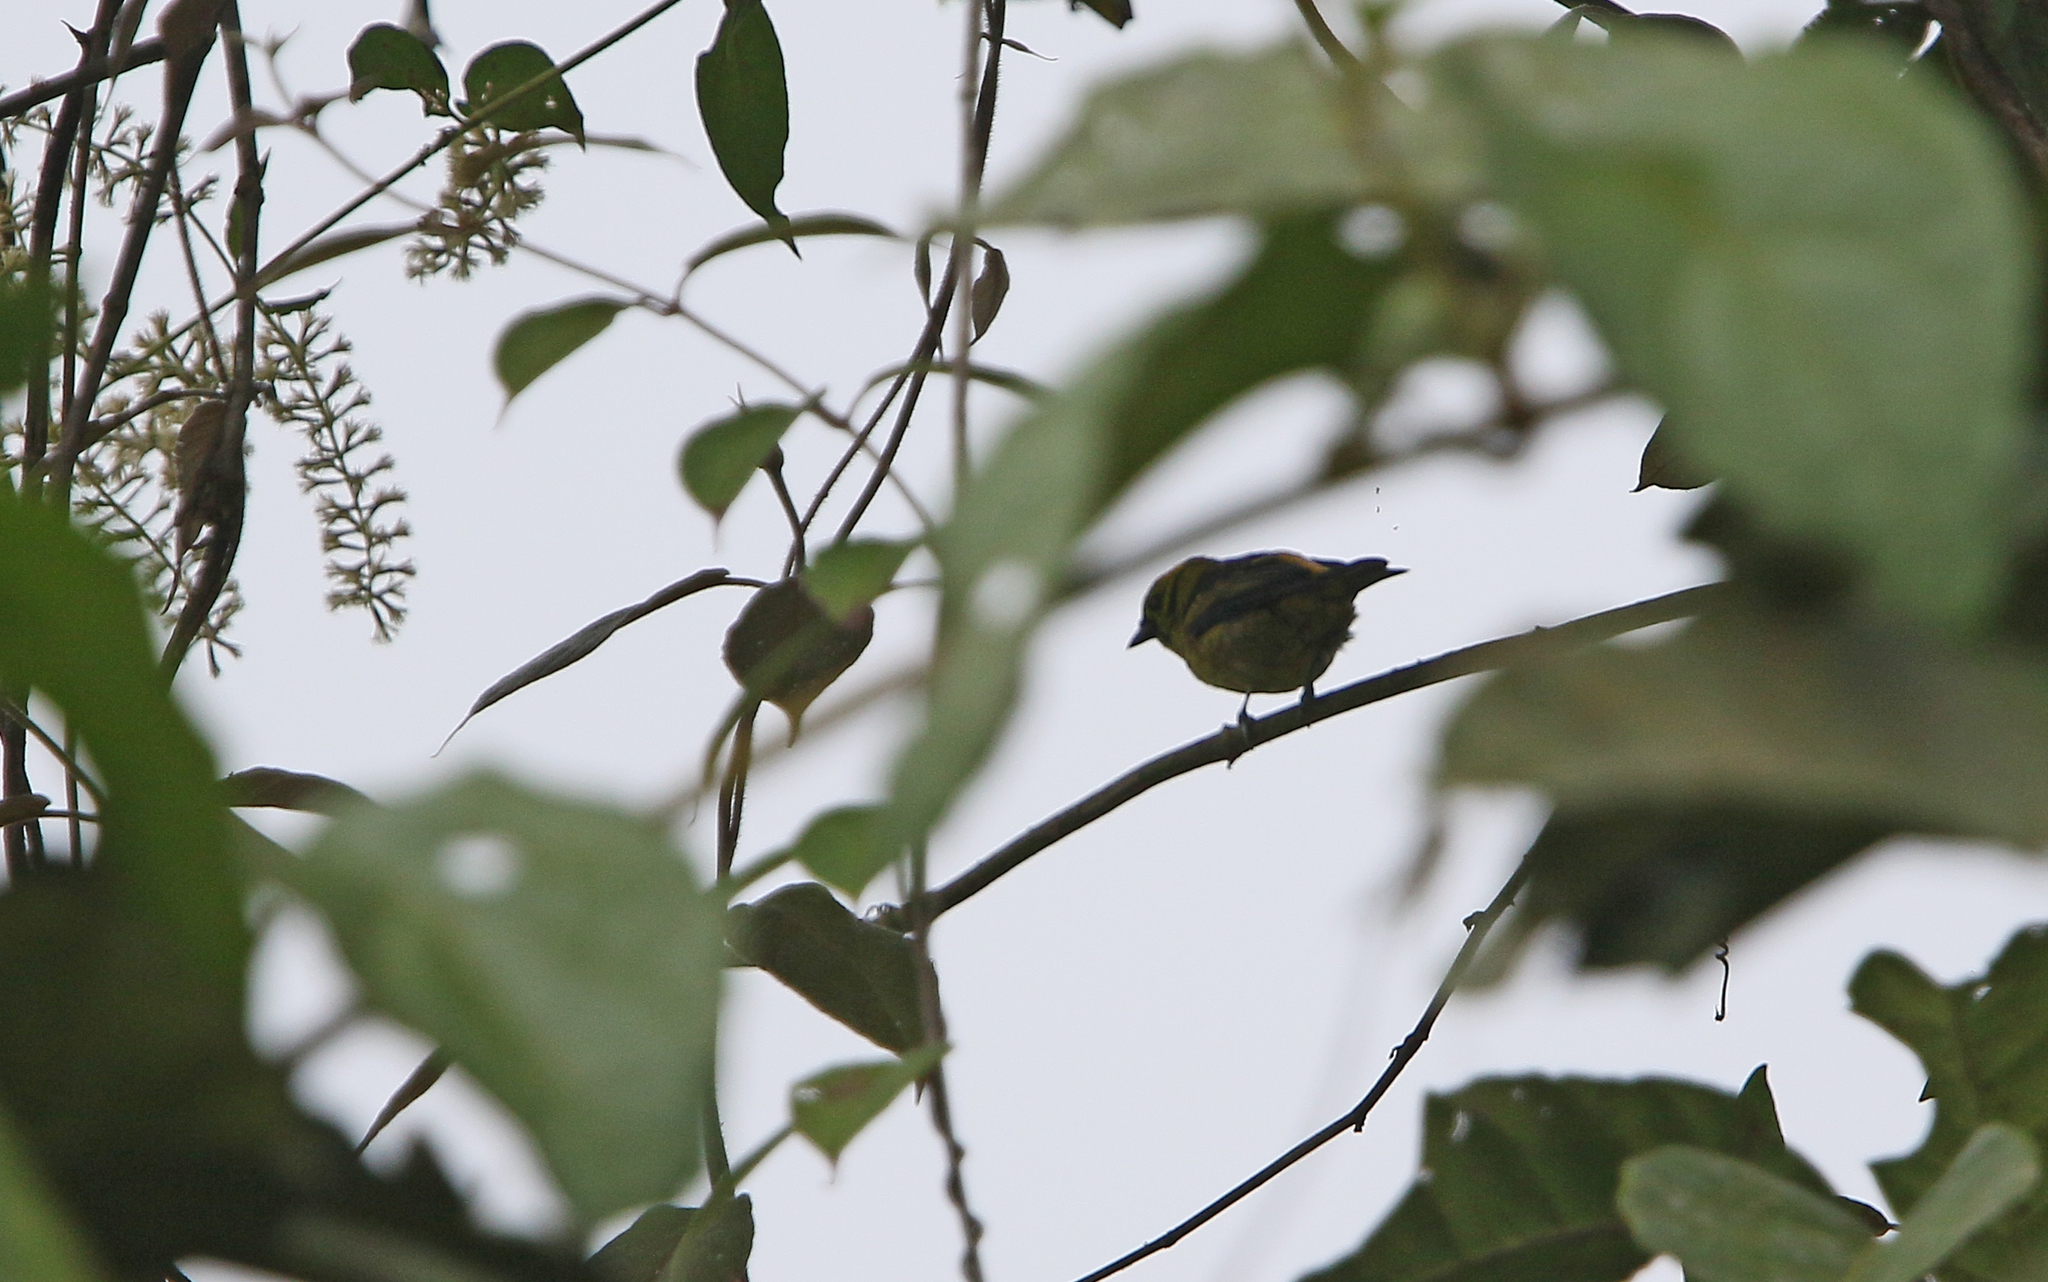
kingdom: Animalia
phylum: Chordata
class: Aves
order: Passeriformes
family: Thraupidae
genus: Tangara
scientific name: Tangara florida
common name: Emerald tanager
